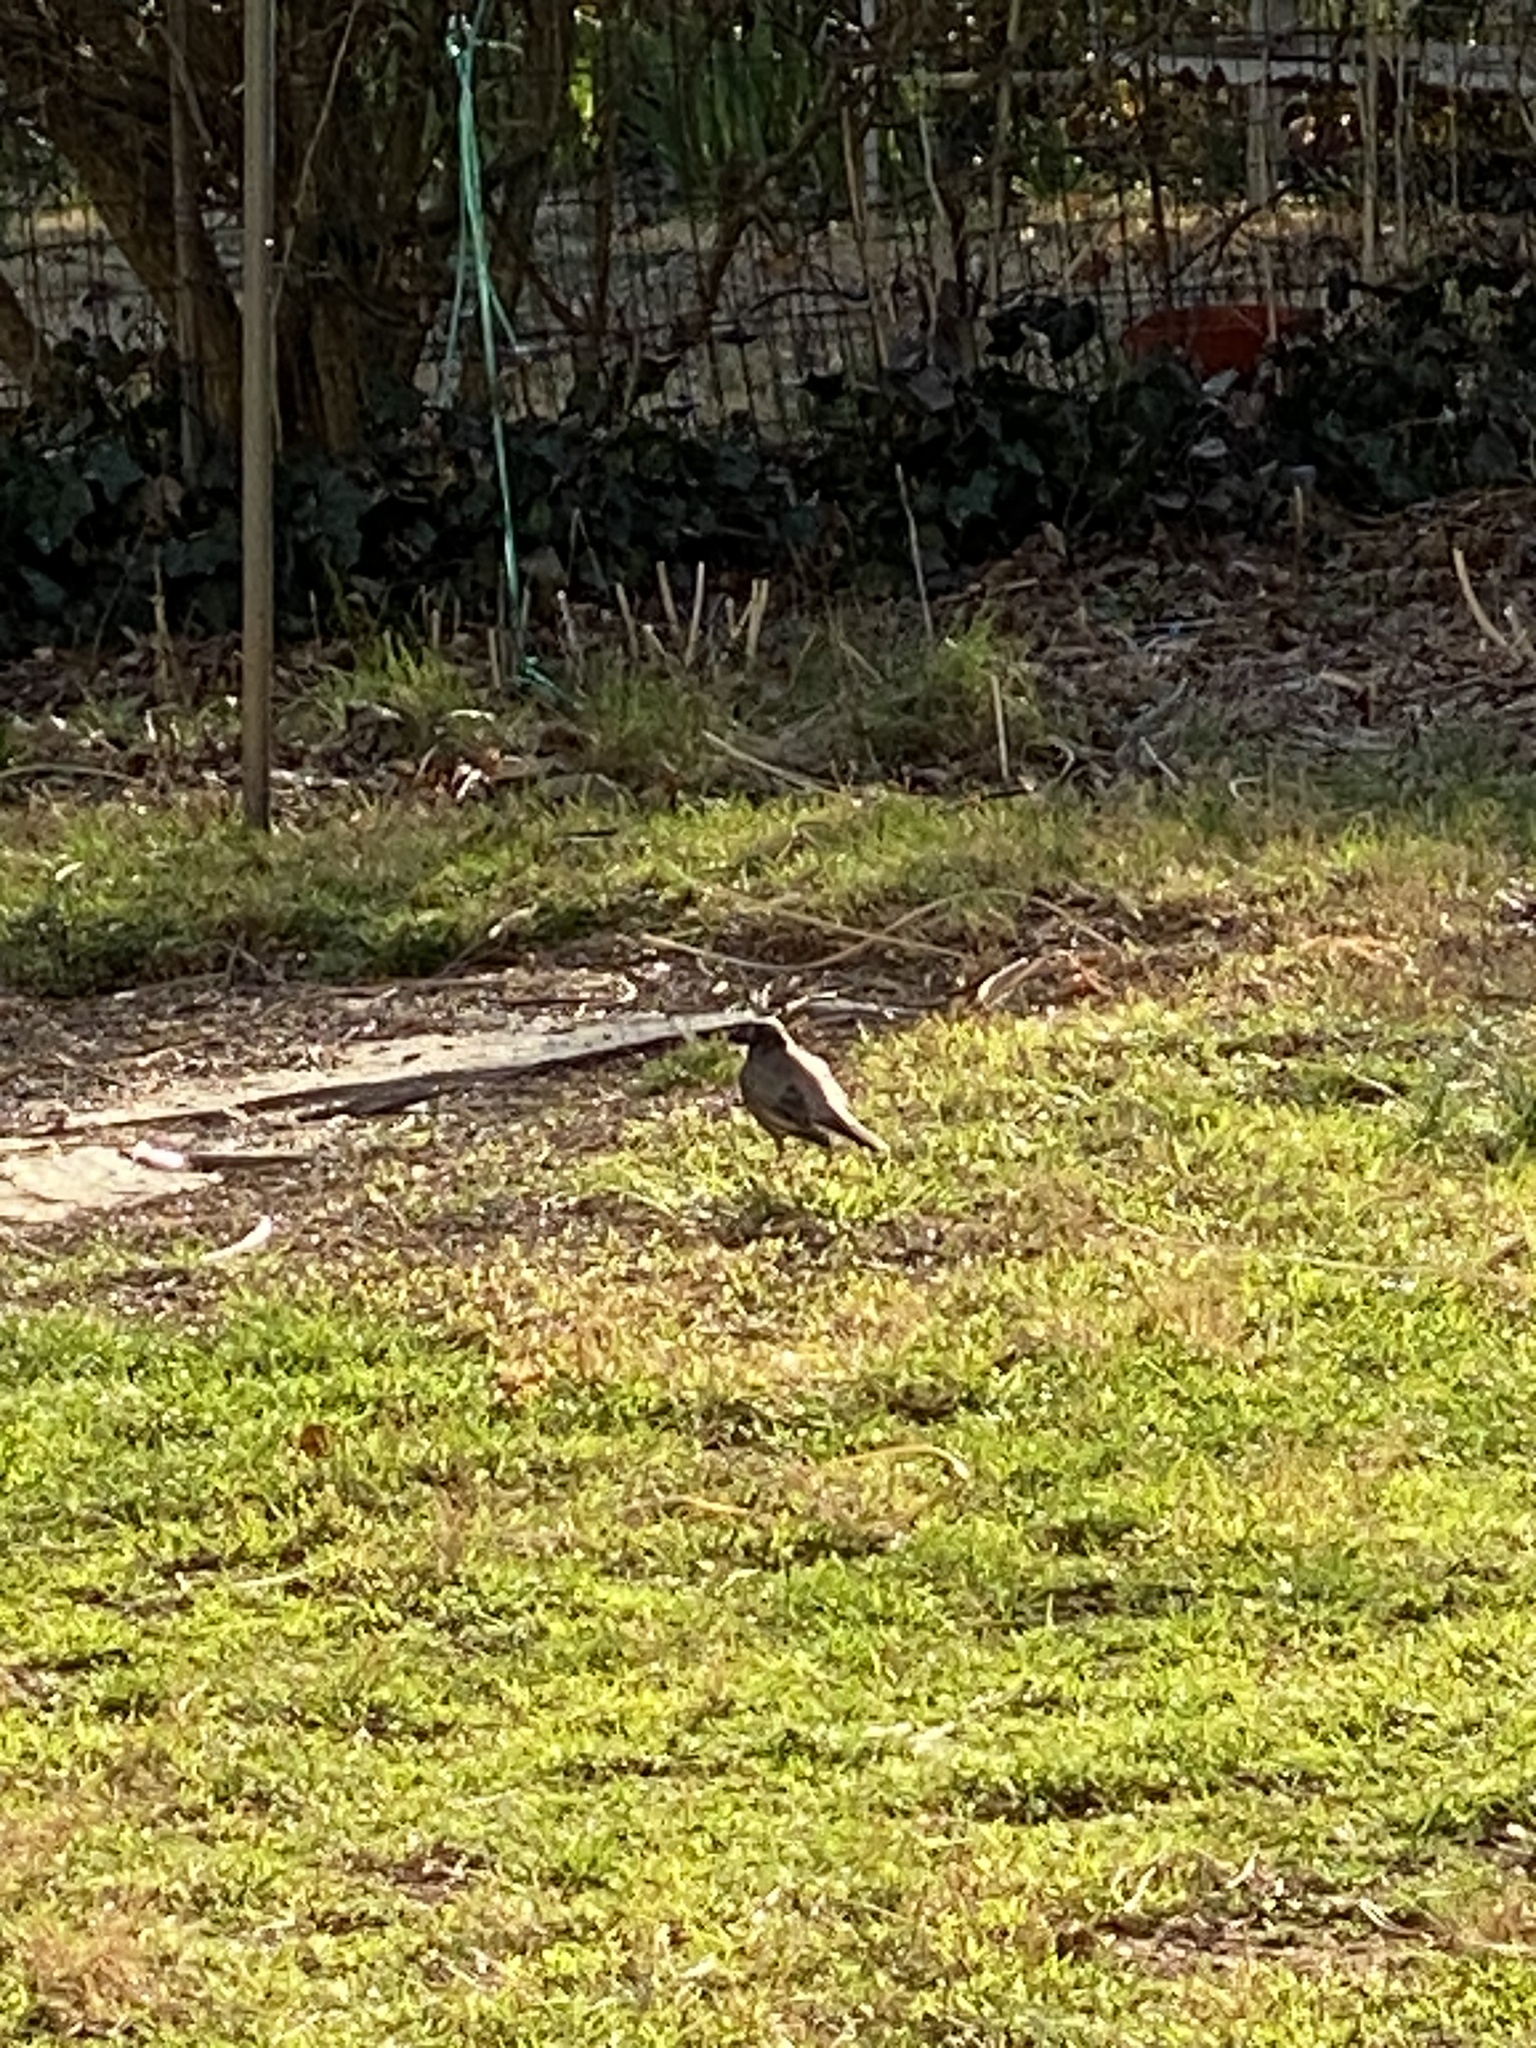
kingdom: Animalia
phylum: Chordata
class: Aves
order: Passeriformes
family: Turdidae
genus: Turdus
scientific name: Turdus migratorius
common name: American robin
